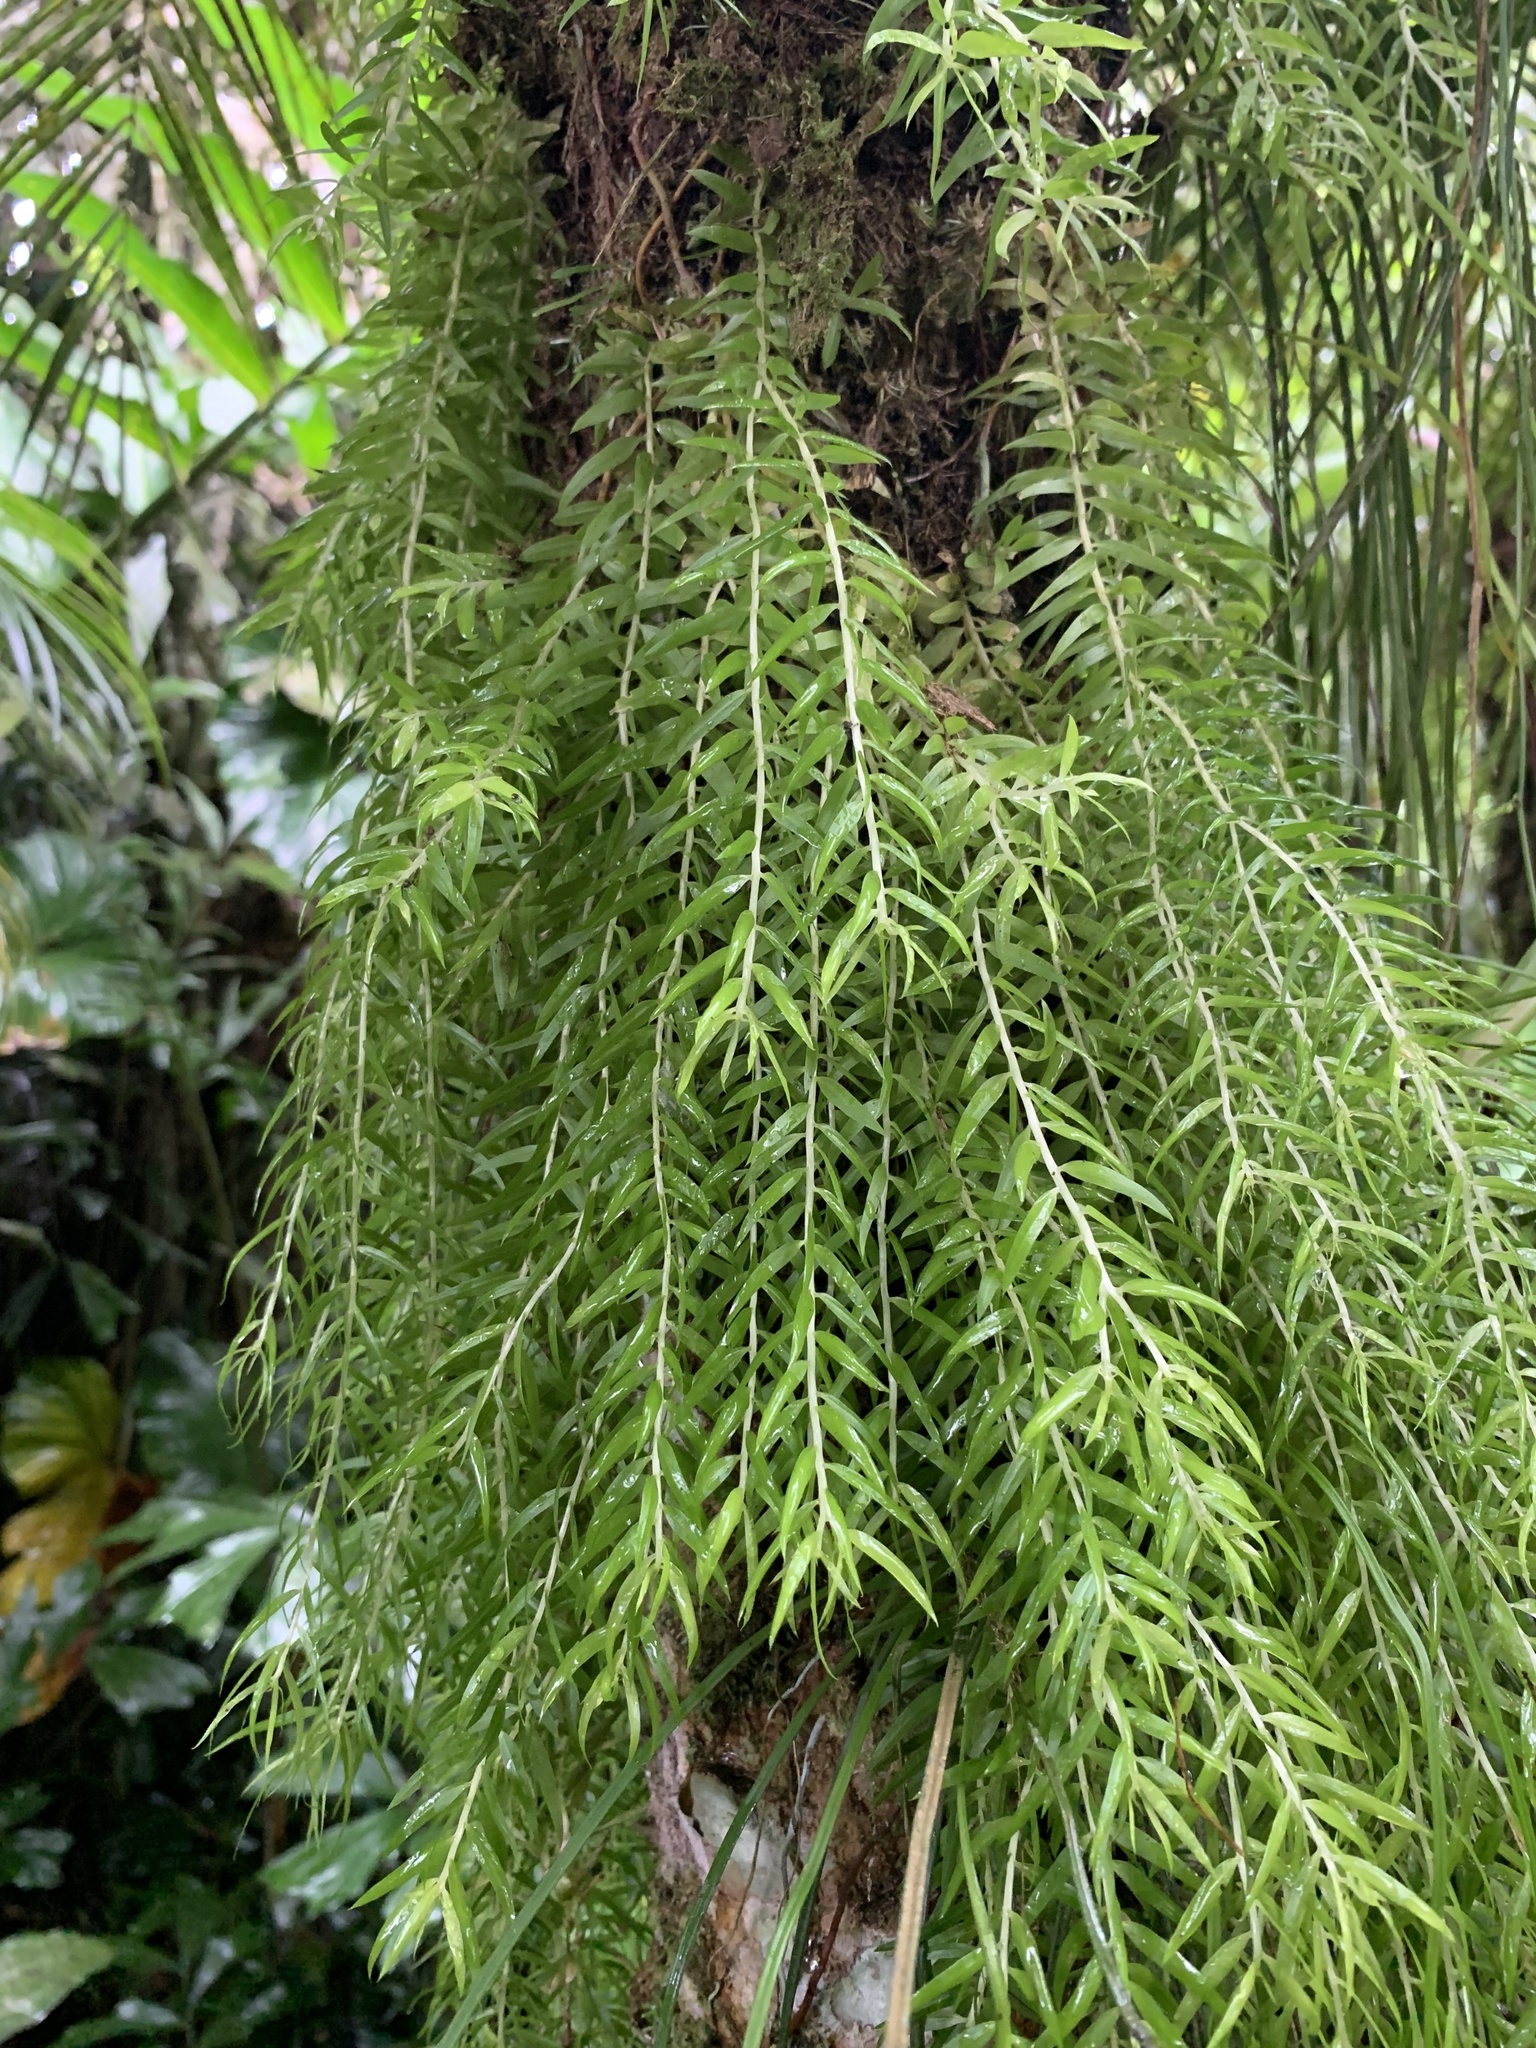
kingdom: Plantae
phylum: Tracheophyta
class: Lycopodiopsida
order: Lycopodiales
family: Lycopodiaceae
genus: Phlegmariurus
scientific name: Phlegmariurus linifolius
